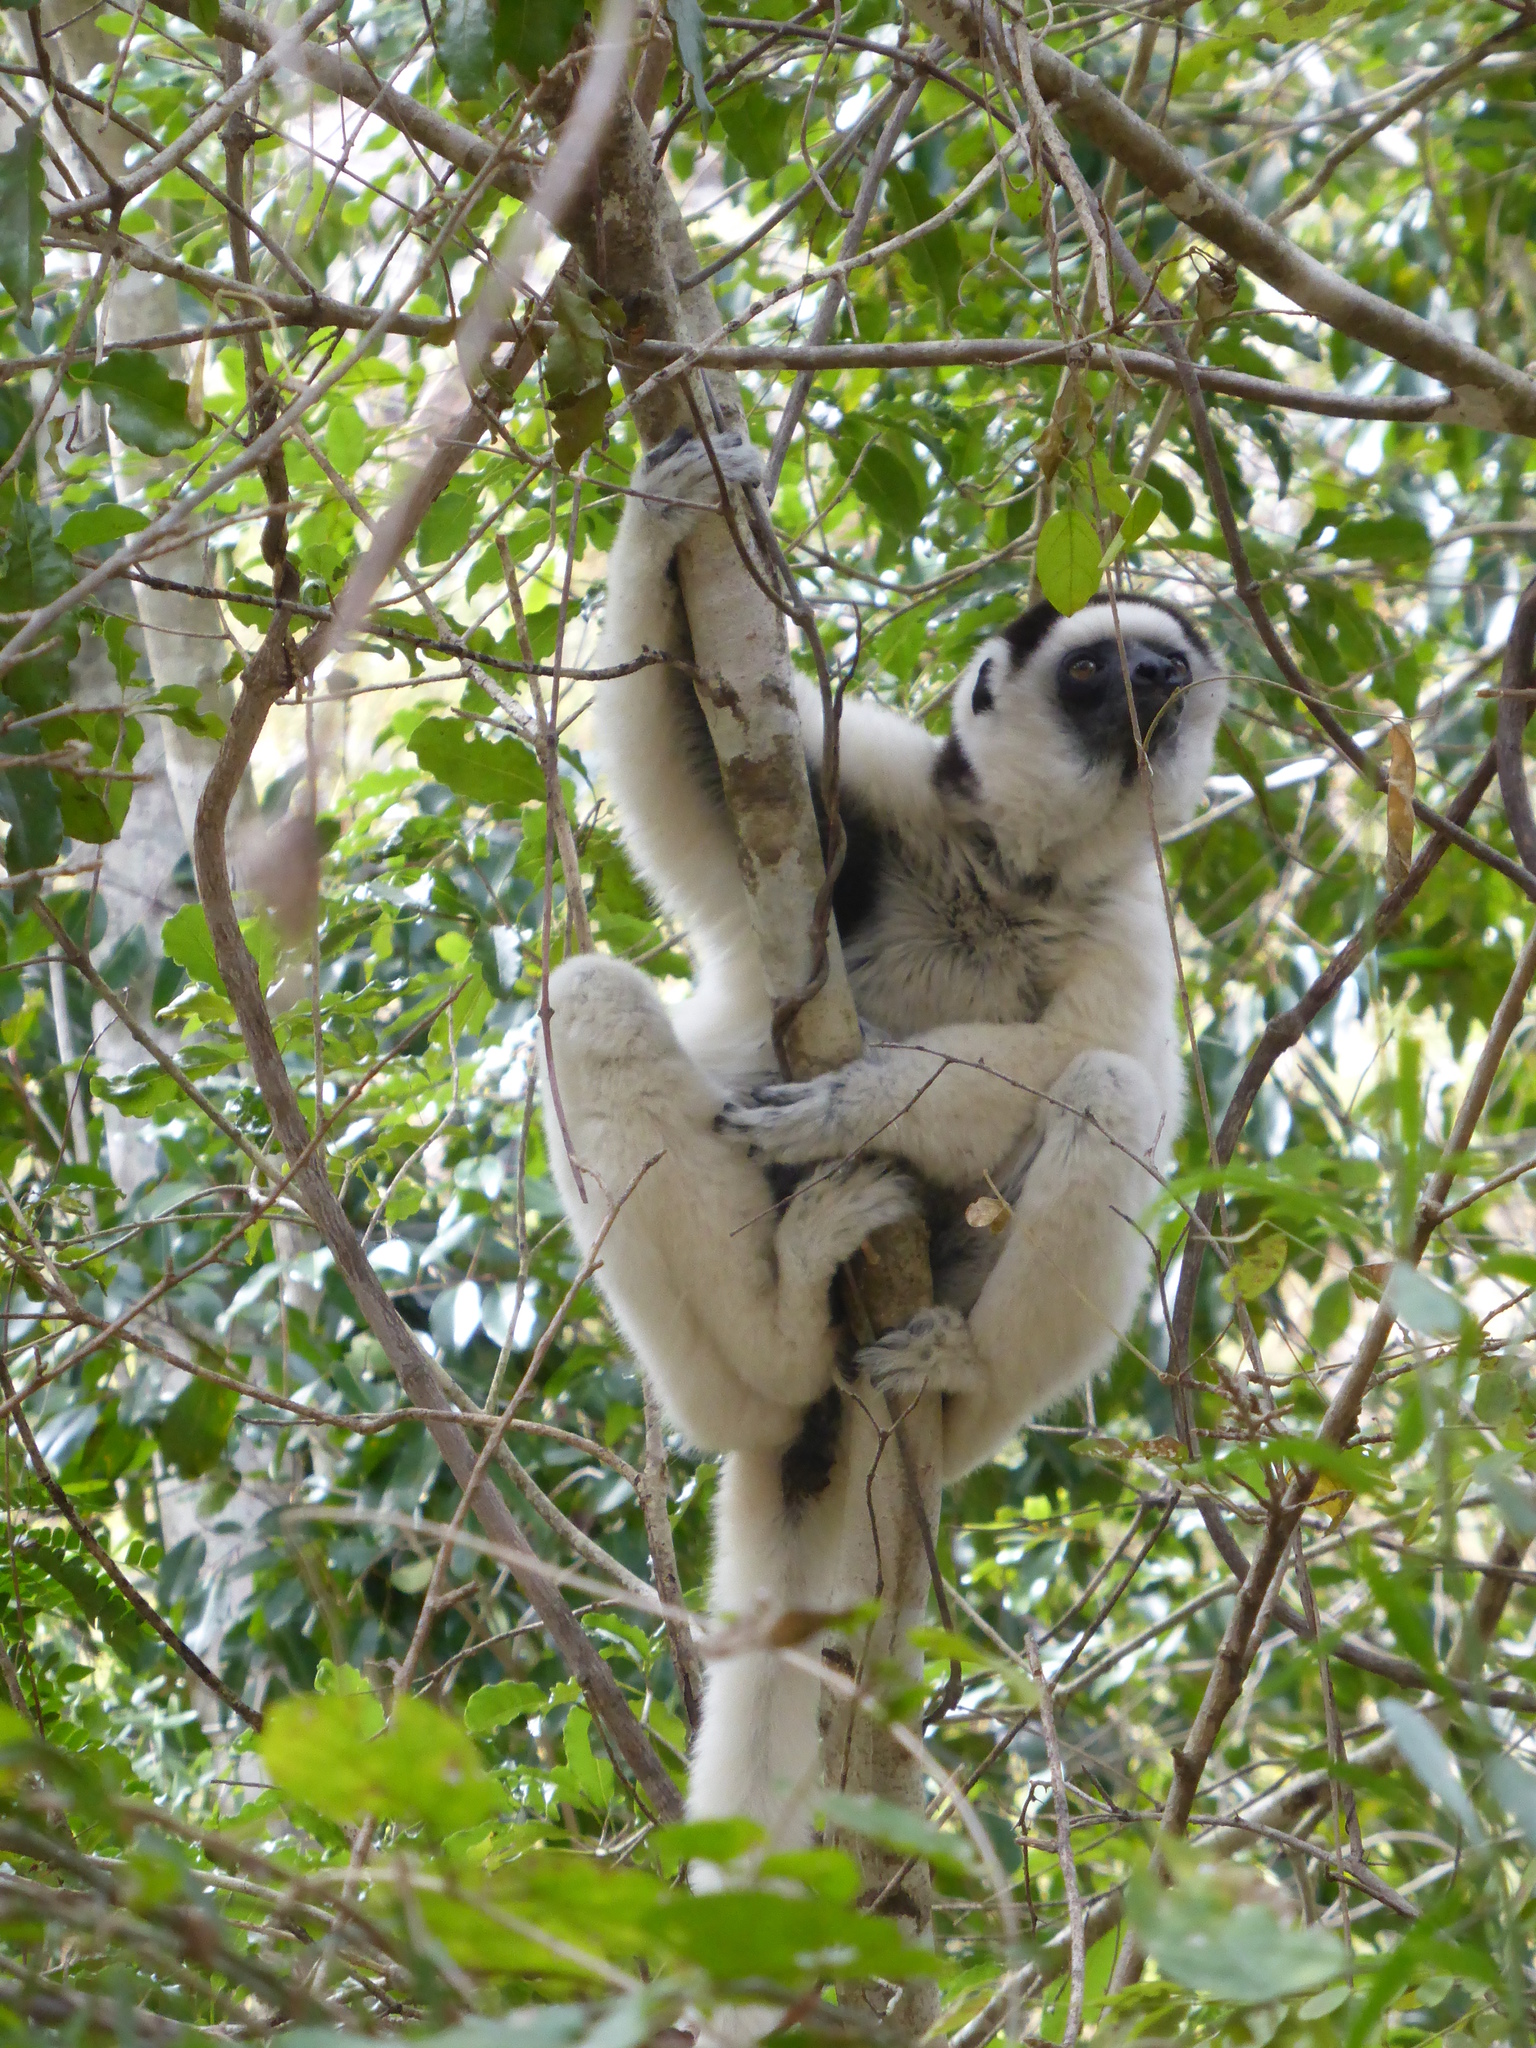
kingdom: Animalia
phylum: Chordata
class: Mammalia
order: Primates
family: Indriidae
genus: Propithecus
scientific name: Propithecus verreauxi
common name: Verreaux's sifaka
